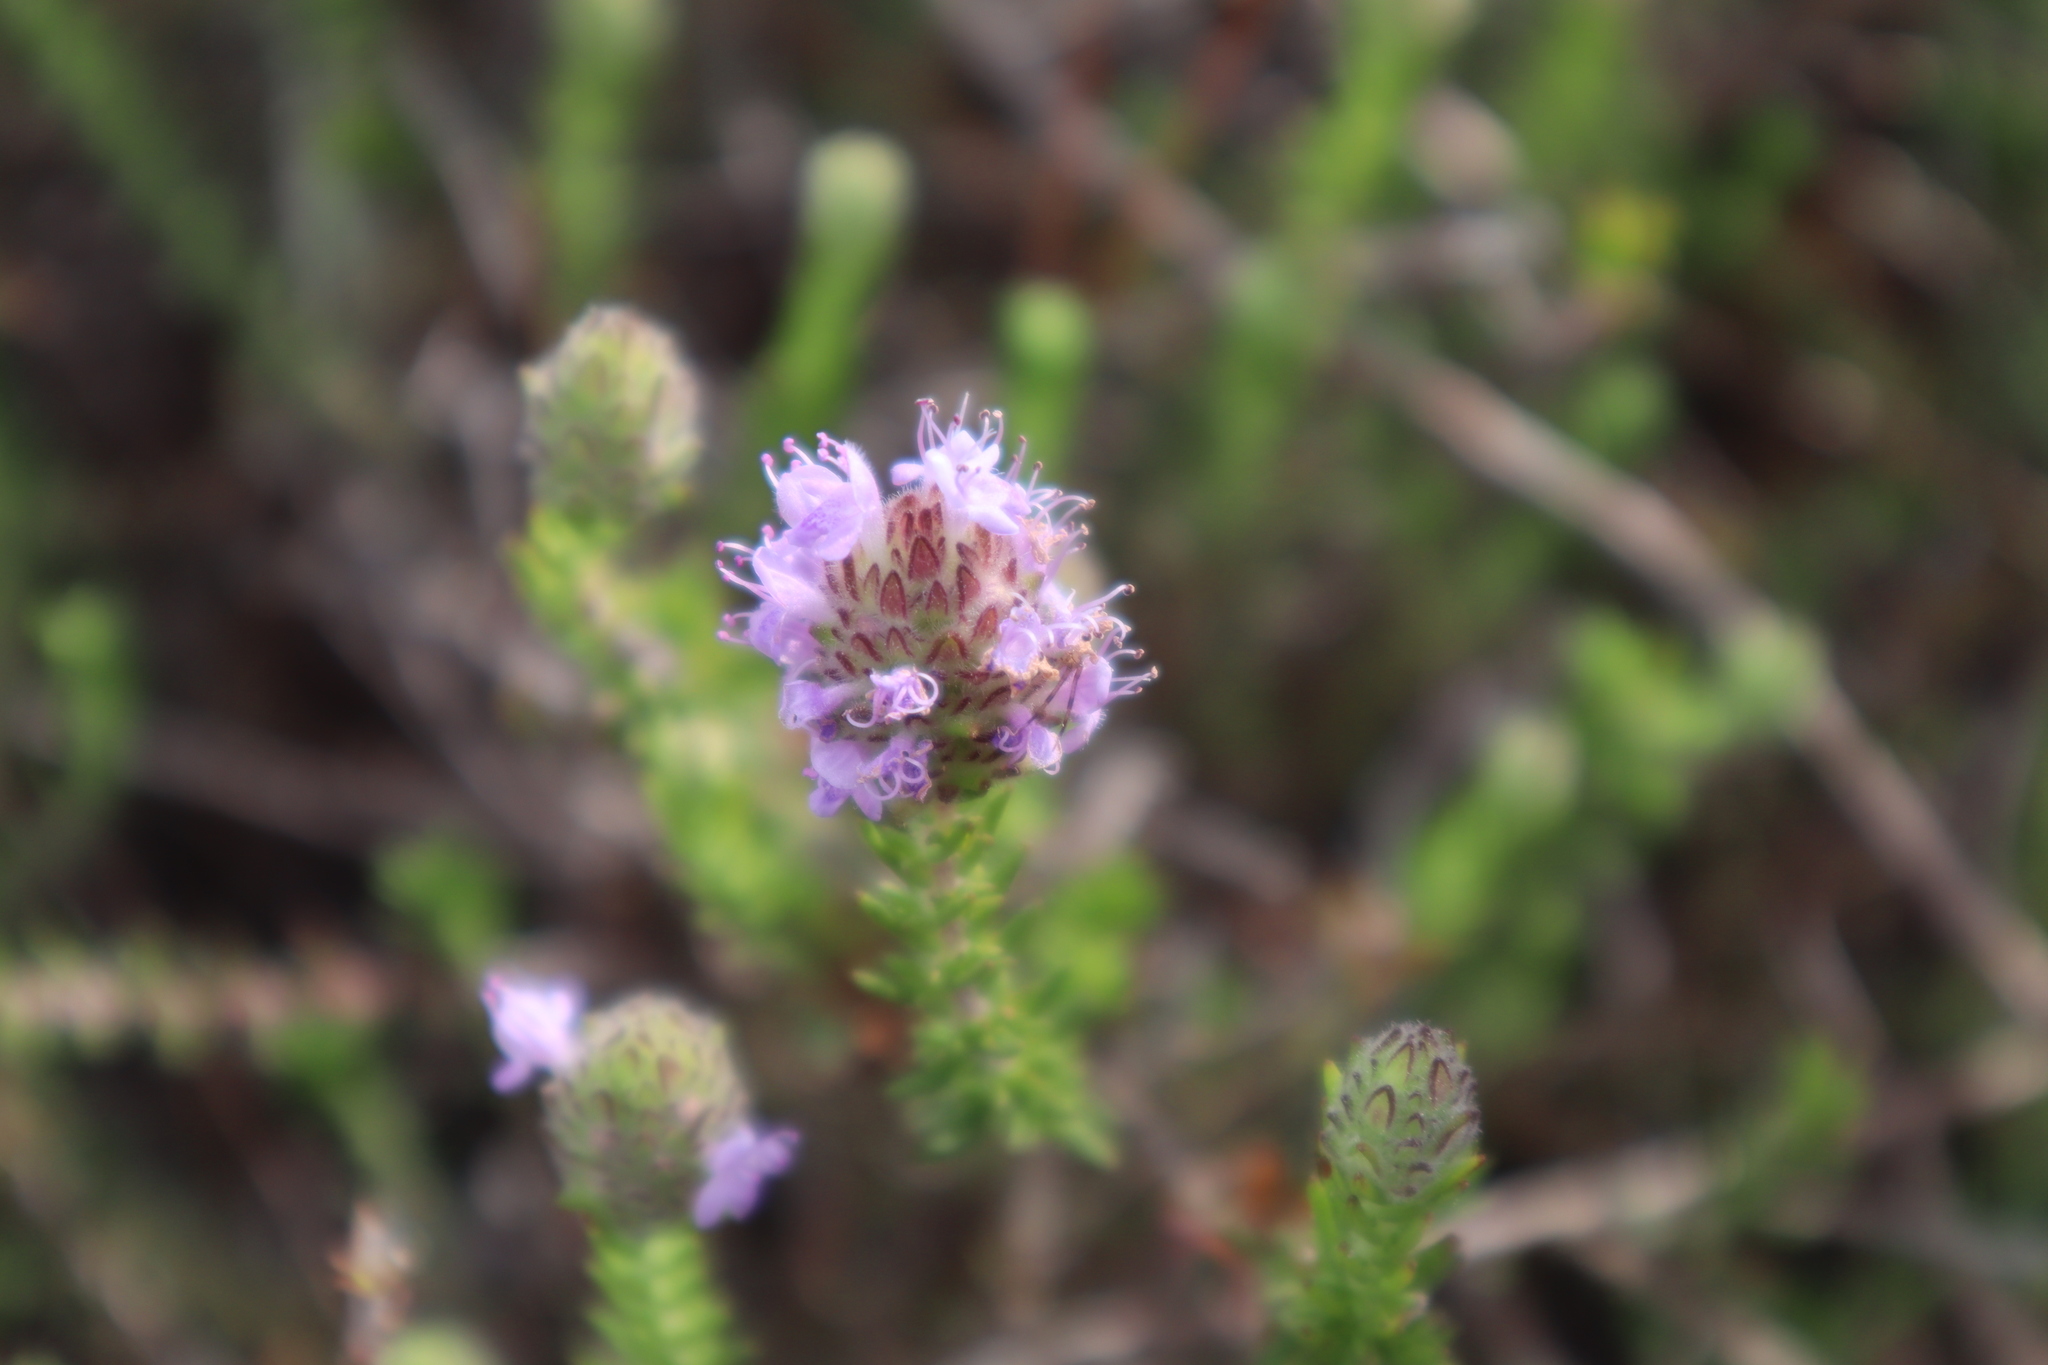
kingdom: Plantae
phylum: Tracheophyta
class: Magnoliopsida
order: Lamiales
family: Lamiaceae
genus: Piloblephis
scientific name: Piloblephis rigida
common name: Wild pennyroyal
